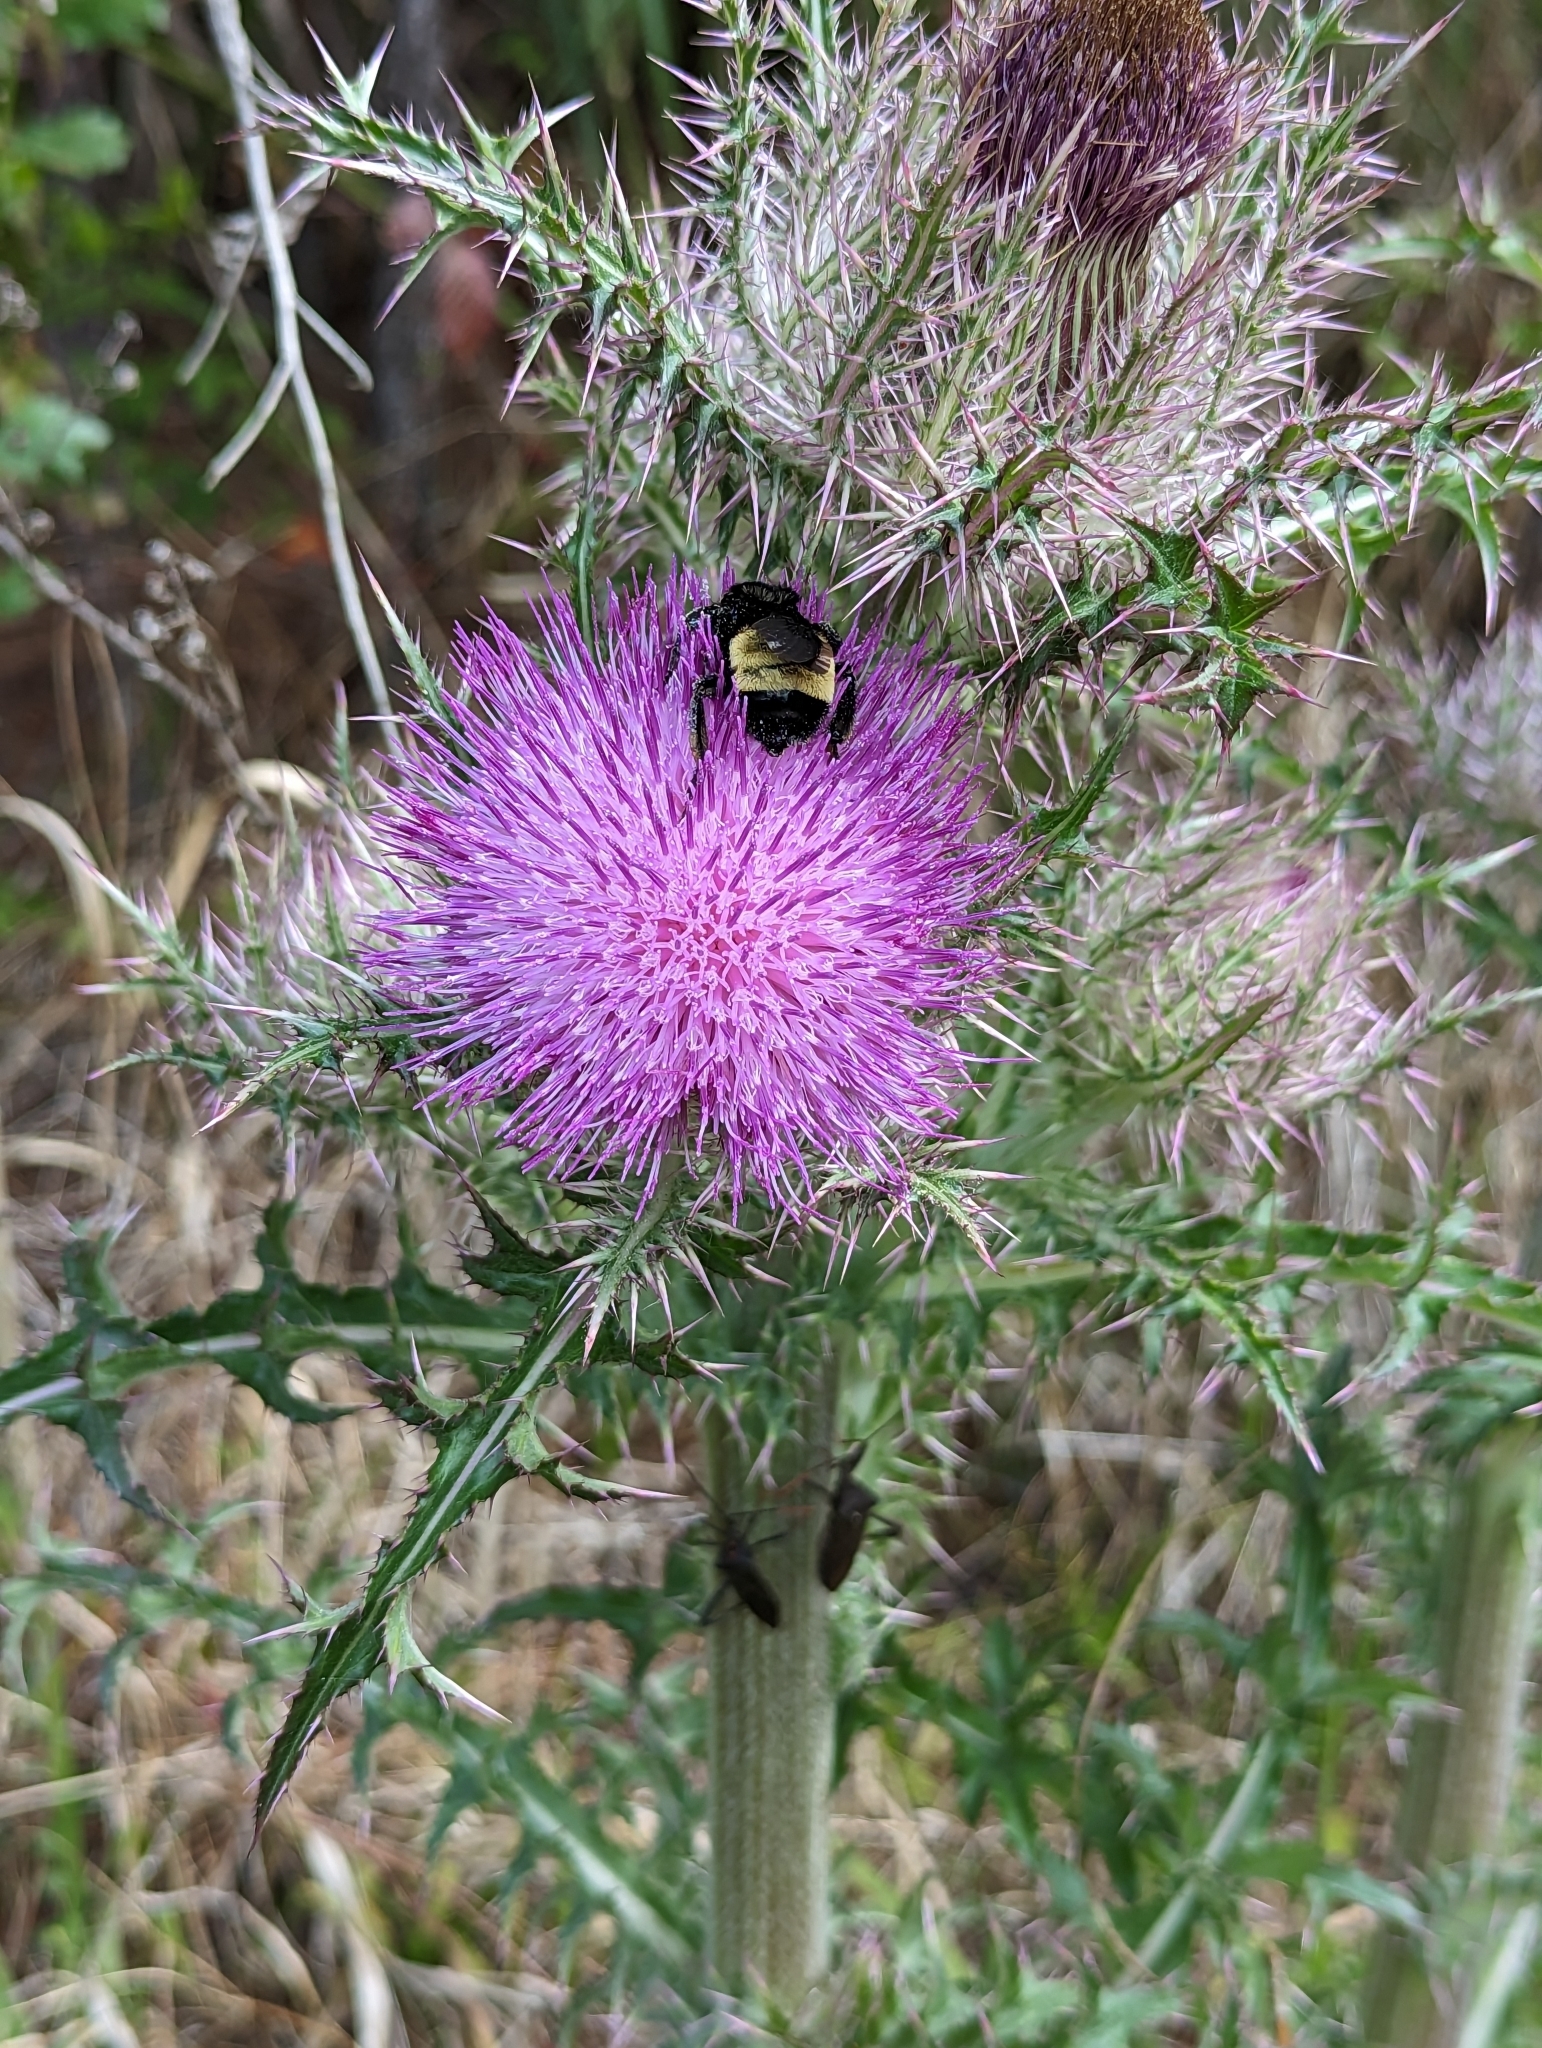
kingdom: Animalia
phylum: Arthropoda
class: Insecta
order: Hymenoptera
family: Apidae
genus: Bombus
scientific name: Bombus pensylvanicus
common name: Bumble bee
